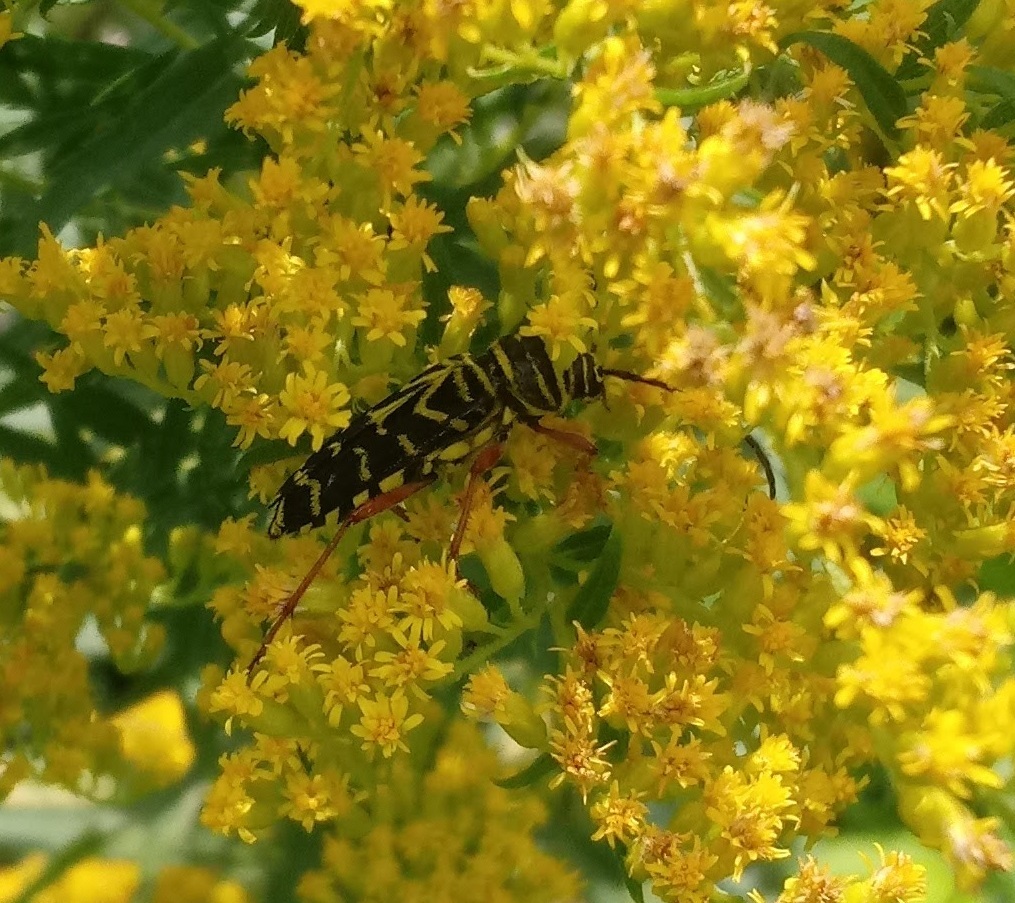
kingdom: Animalia
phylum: Arthropoda
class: Insecta
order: Coleoptera
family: Cerambycidae
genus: Megacyllene
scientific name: Megacyllene robiniae
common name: Locust borer
